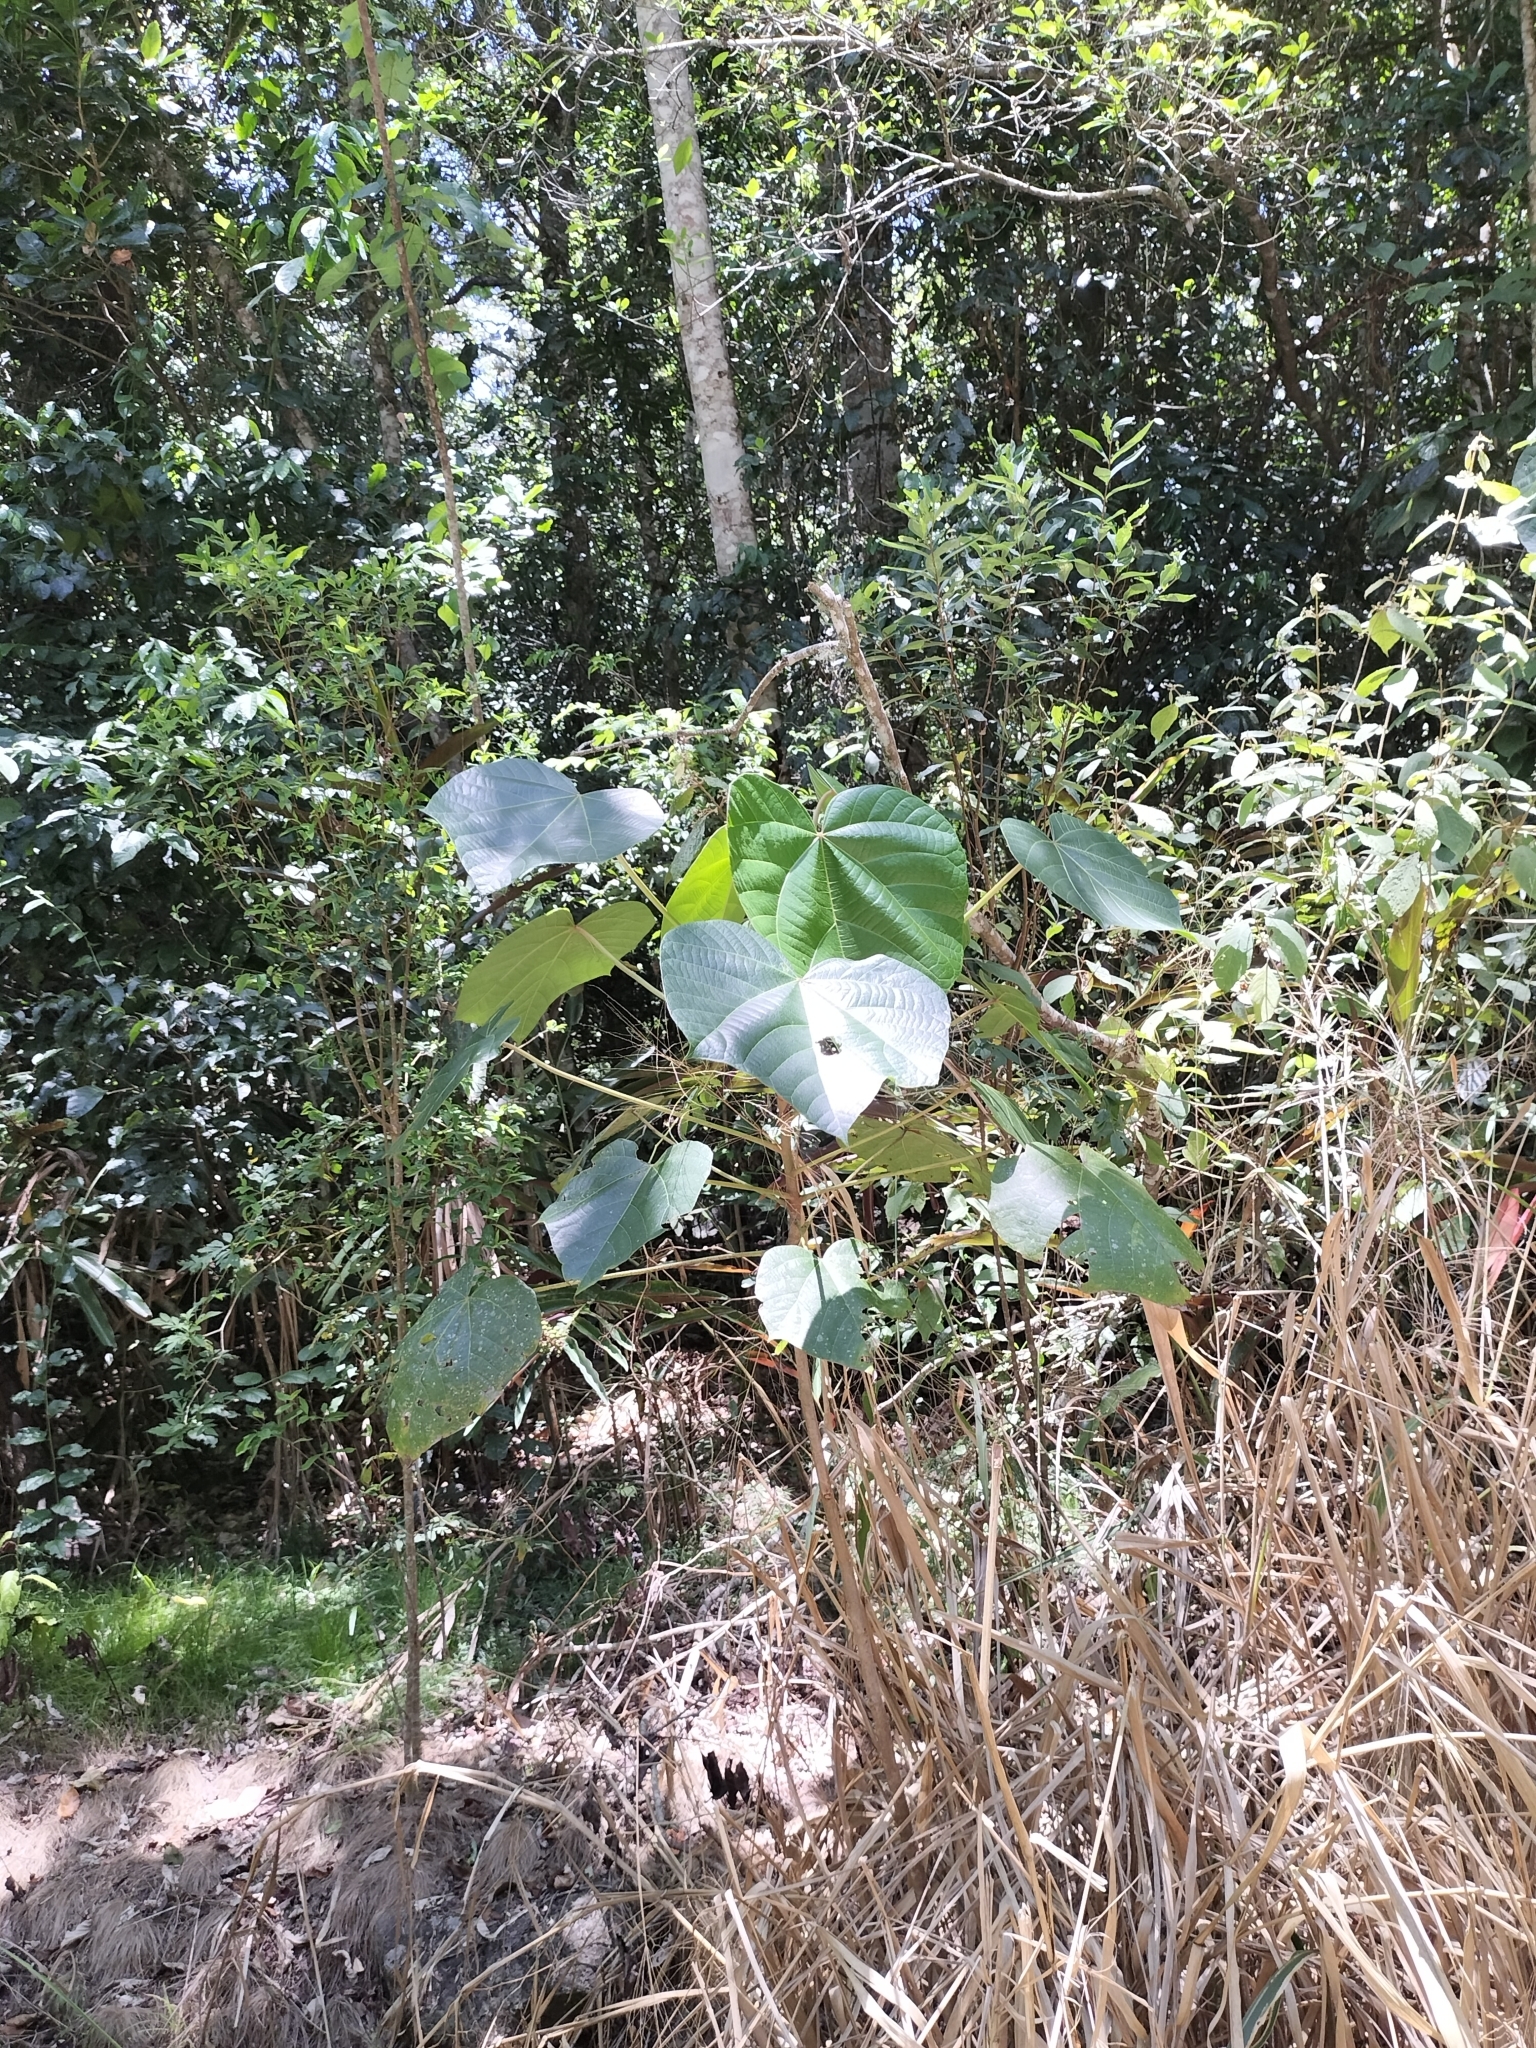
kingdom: Plantae
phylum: Tracheophyta
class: Magnoliopsida
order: Malpighiales
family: Euphorbiaceae
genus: Aleurites
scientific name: Aleurites moluccanus
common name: Candlenut tree
